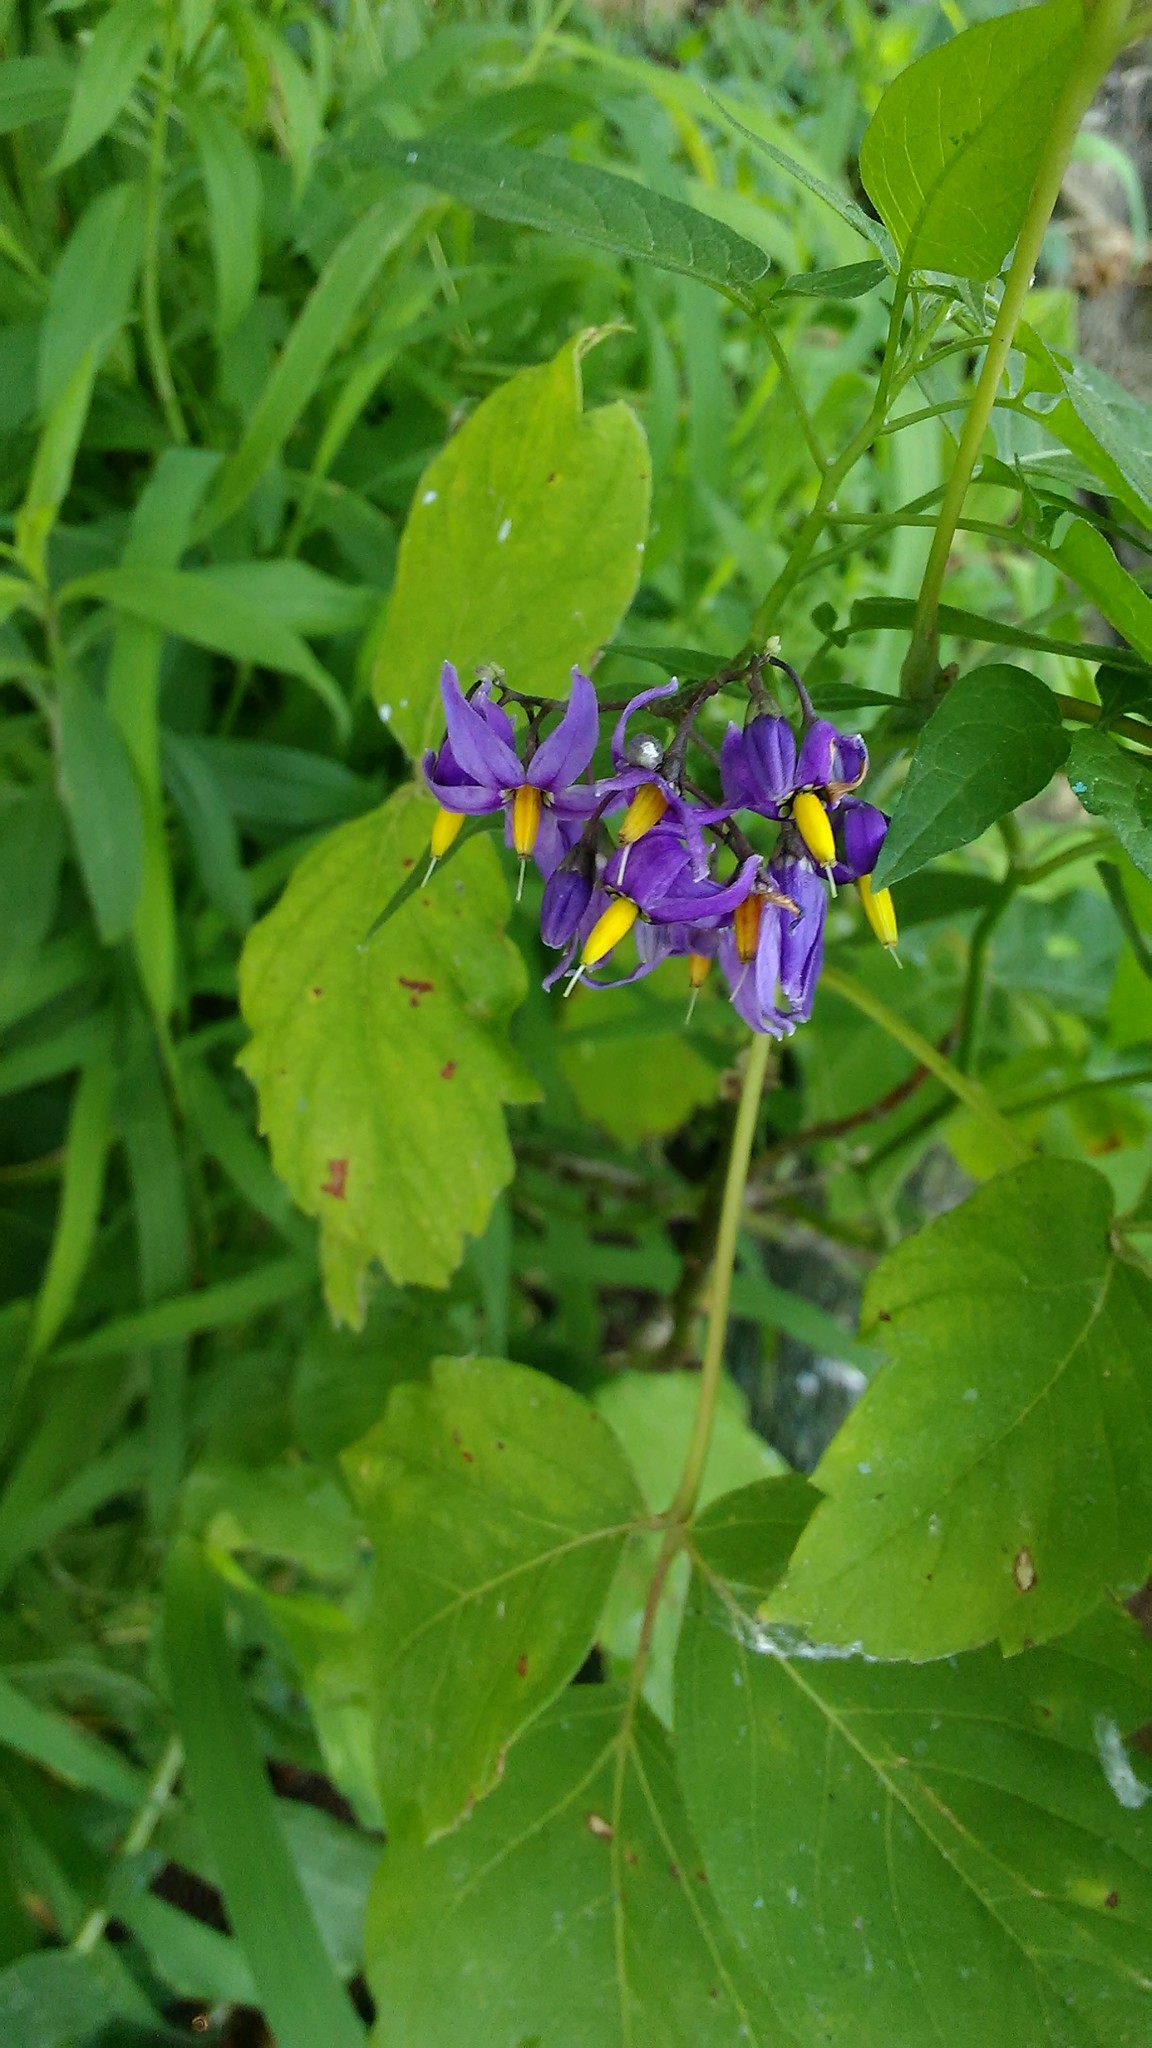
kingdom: Plantae
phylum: Tracheophyta
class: Magnoliopsida
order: Solanales
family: Solanaceae
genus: Solanum
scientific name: Solanum dulcamara
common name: Climbing nightshade
